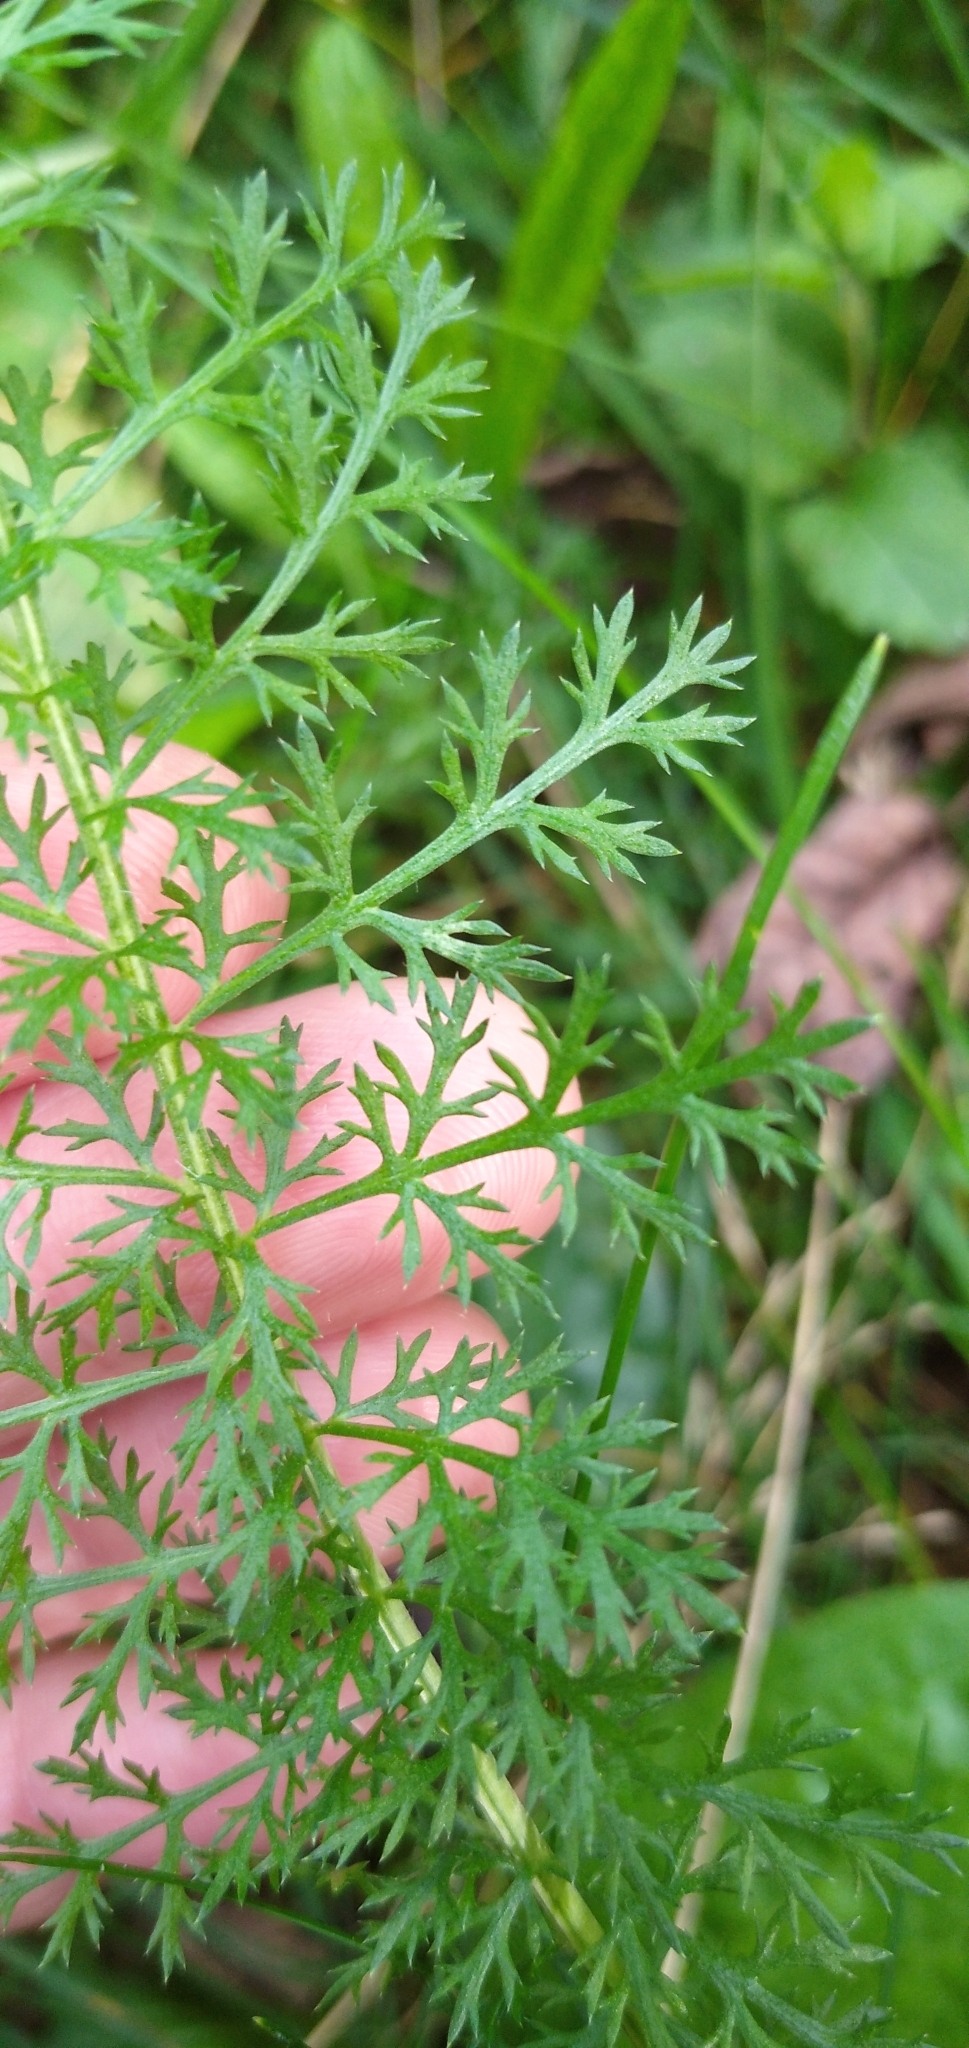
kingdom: Plantae
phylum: Tracheophyta
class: Magnoliopsida
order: Asterales
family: Asteraceae
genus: Achillea
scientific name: Achillea millefolium
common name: Yarrow
